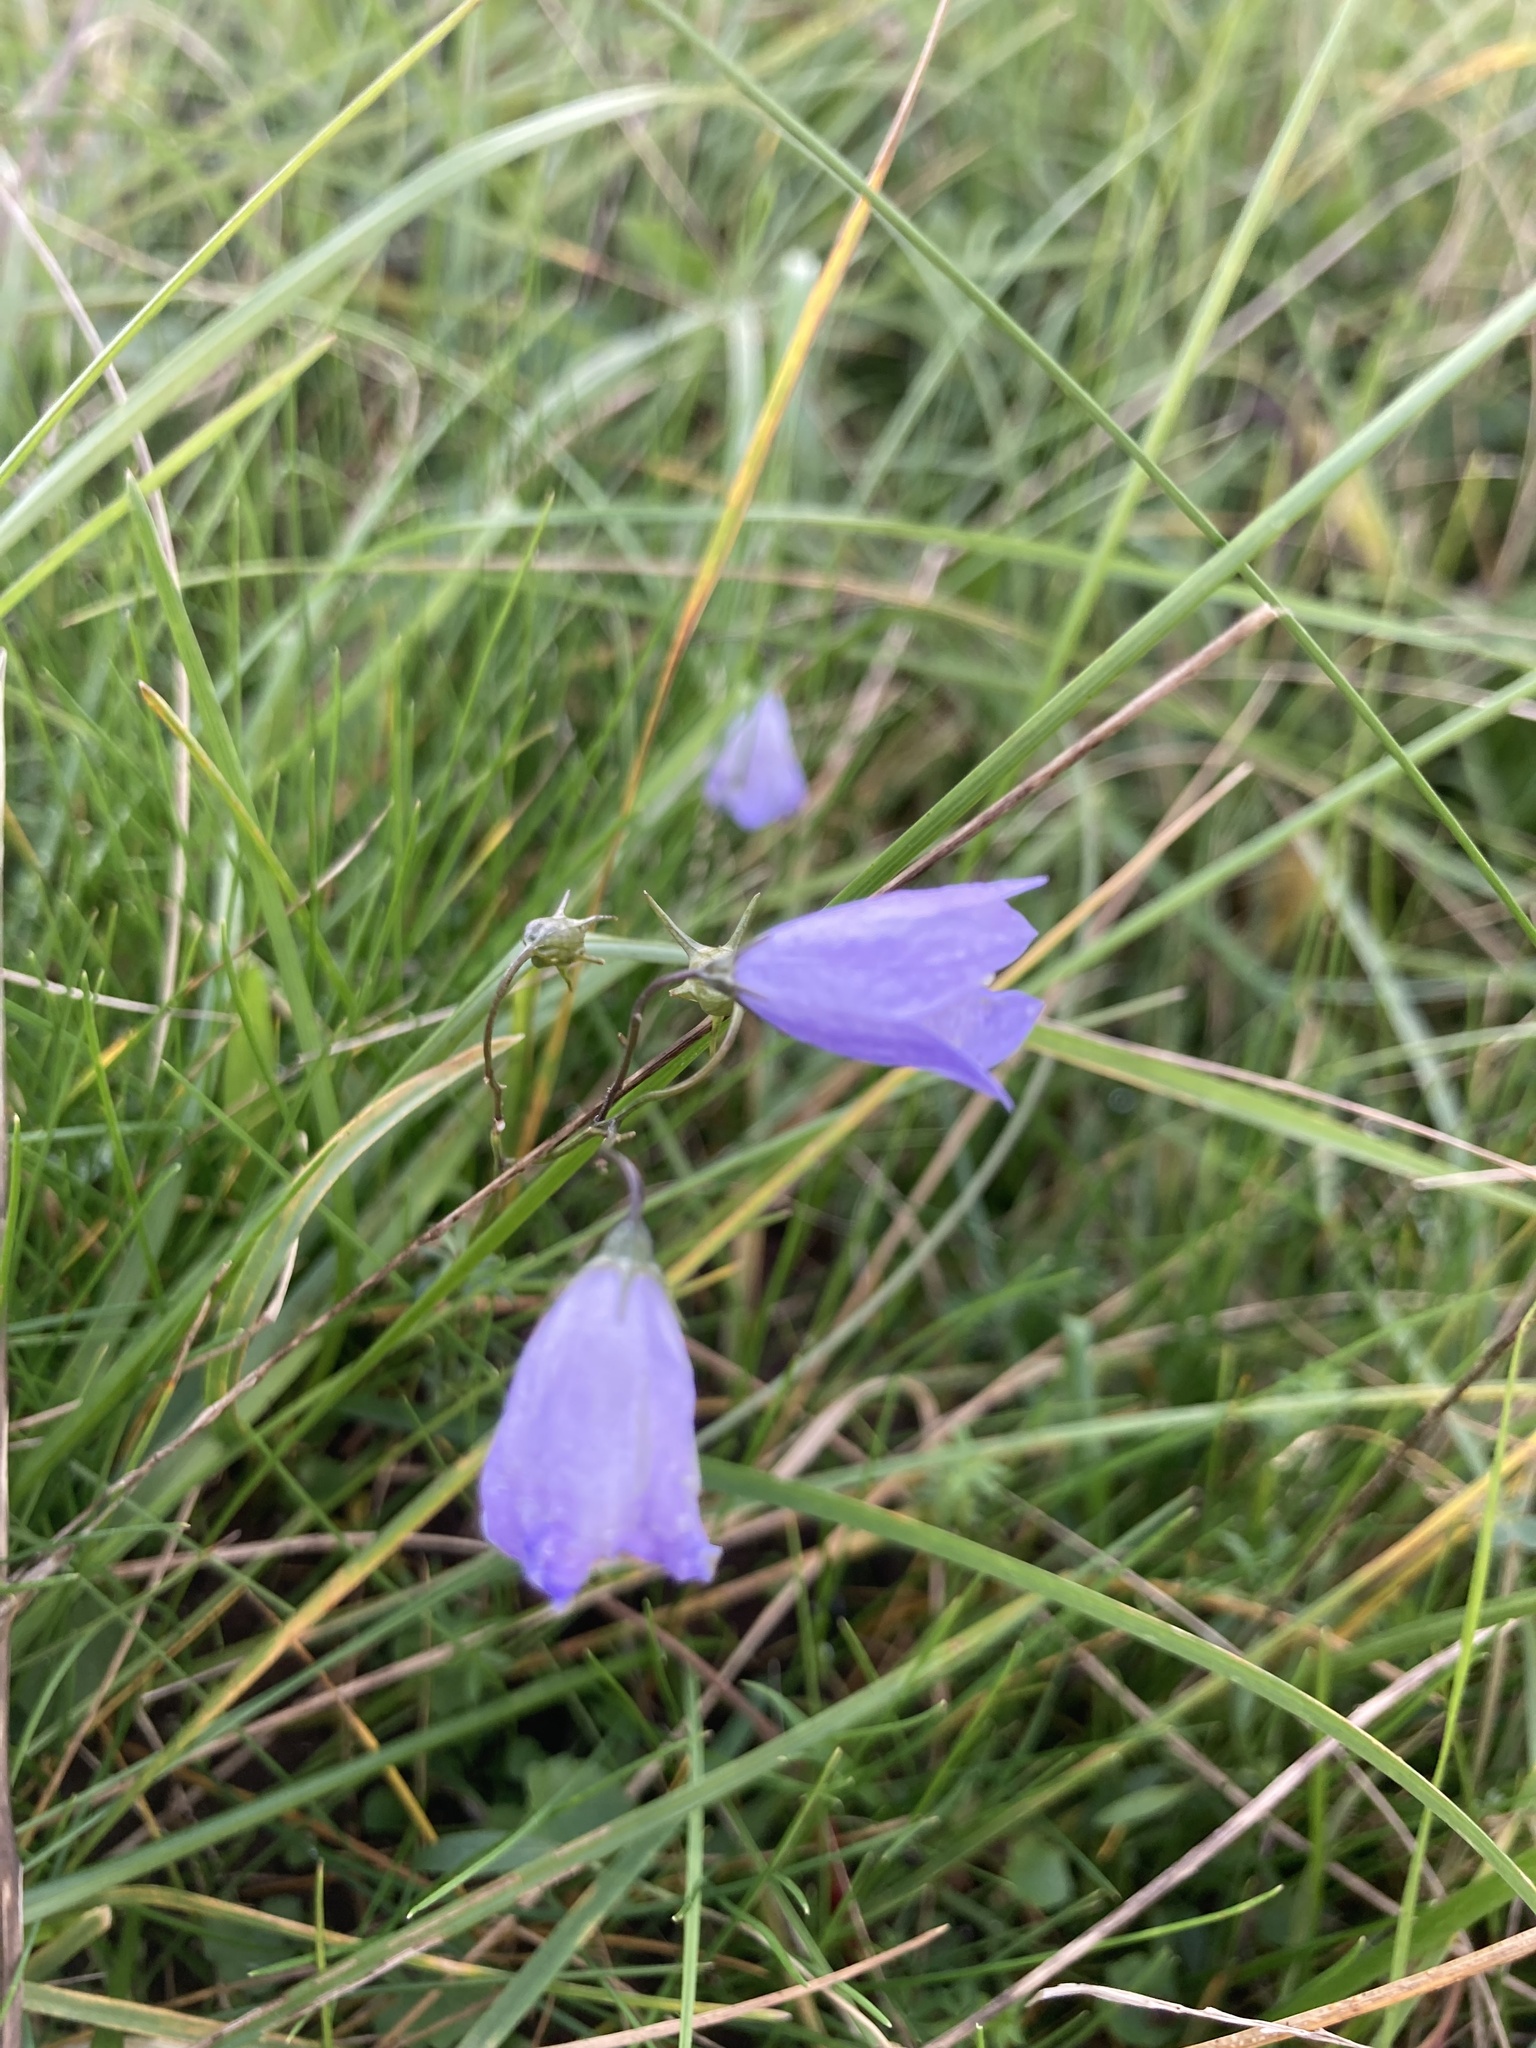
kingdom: Plantae
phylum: Tracheophyta
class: Magnoliopsida
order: Asterales
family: Campanulaceae
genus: Campanula
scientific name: Campanula rotundifolia
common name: Harebell
